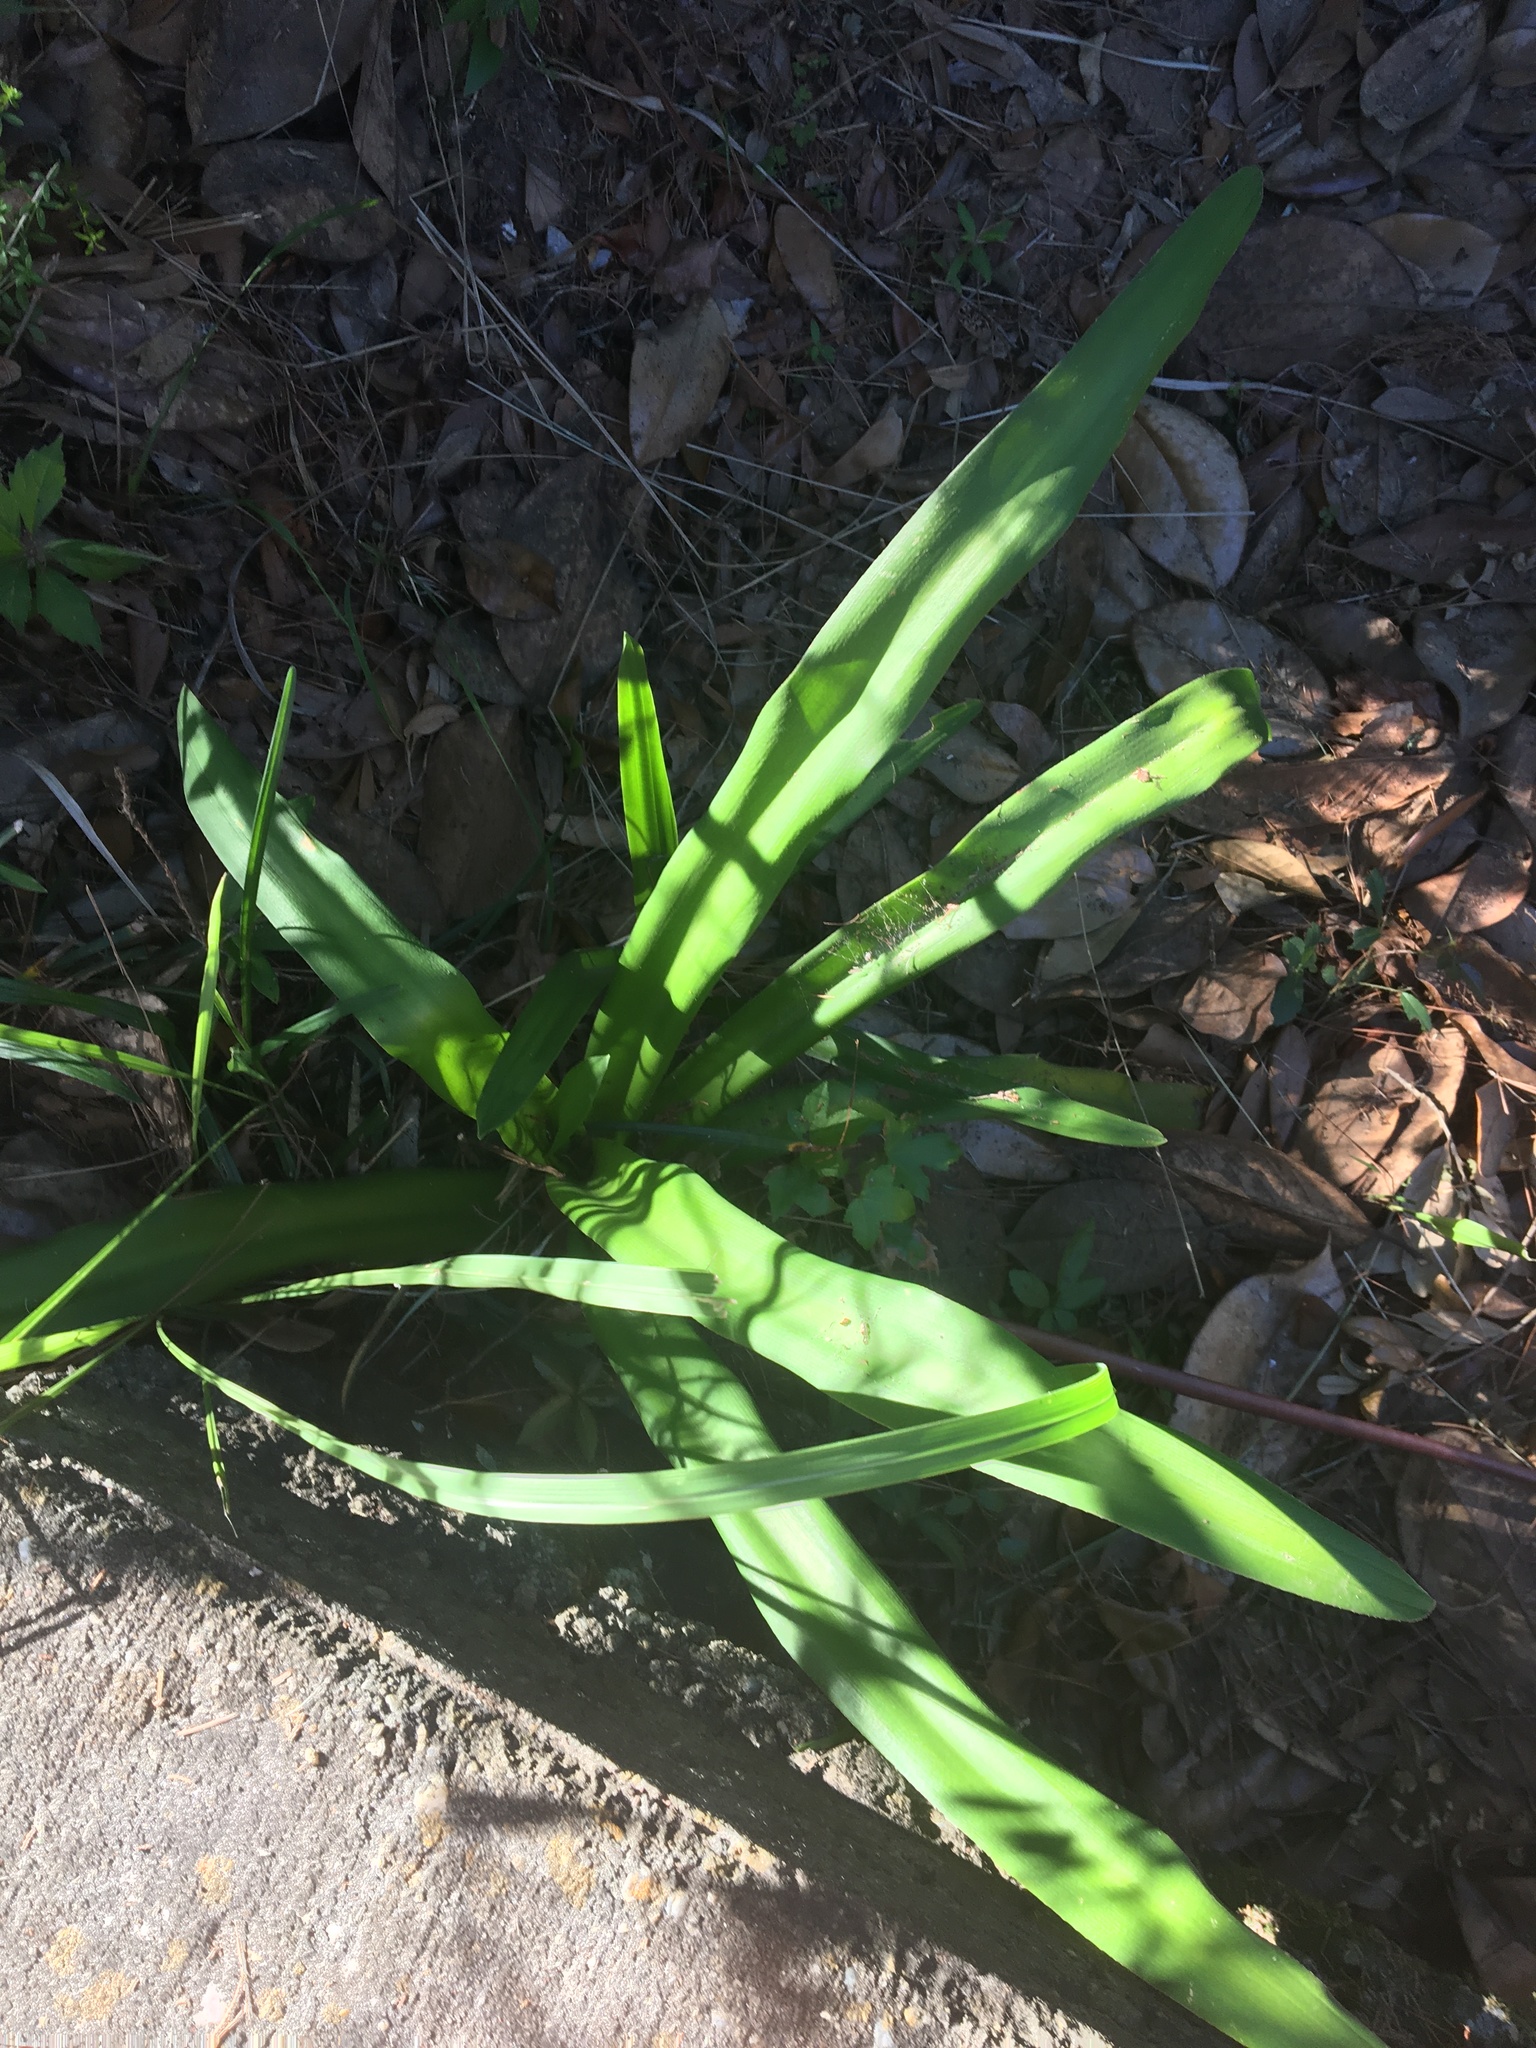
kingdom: Plantae
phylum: Tracheophyta
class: Liliopsida
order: Asparagales
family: Amaryllidaceae
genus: Crinum
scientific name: Crinum americanum
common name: Florida swamp-lily
